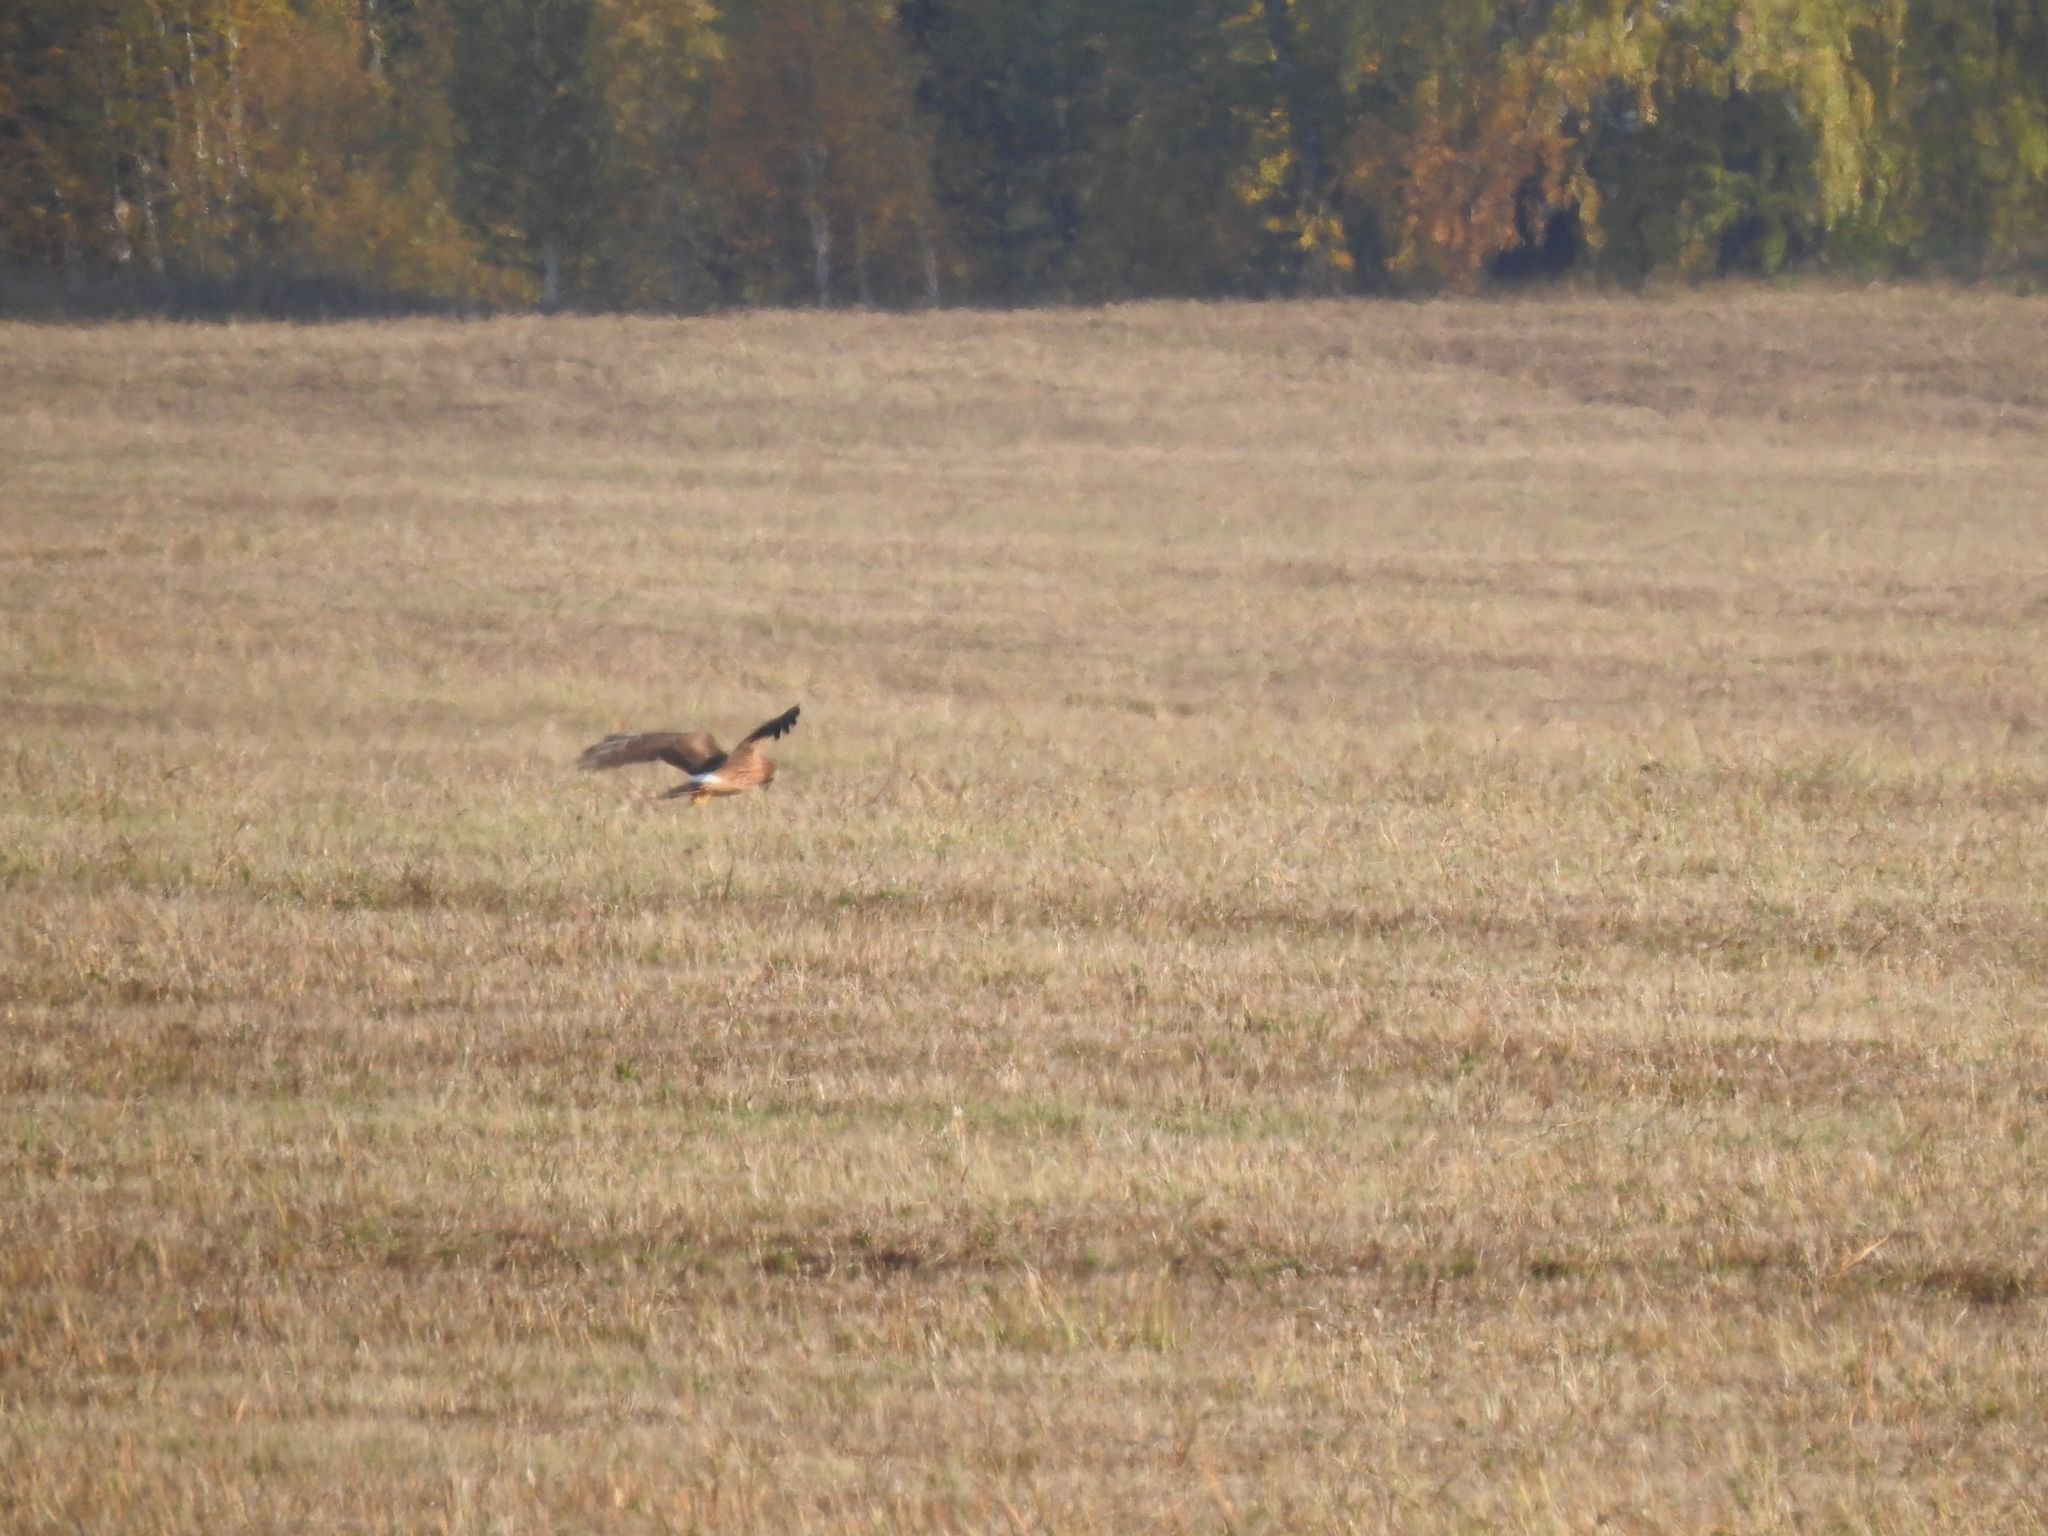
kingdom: Animalia
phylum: Chordata
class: Aves
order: Accipitriformes
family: Accipitridae
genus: Circus
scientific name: Circus cyaneus
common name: Hen harrier
